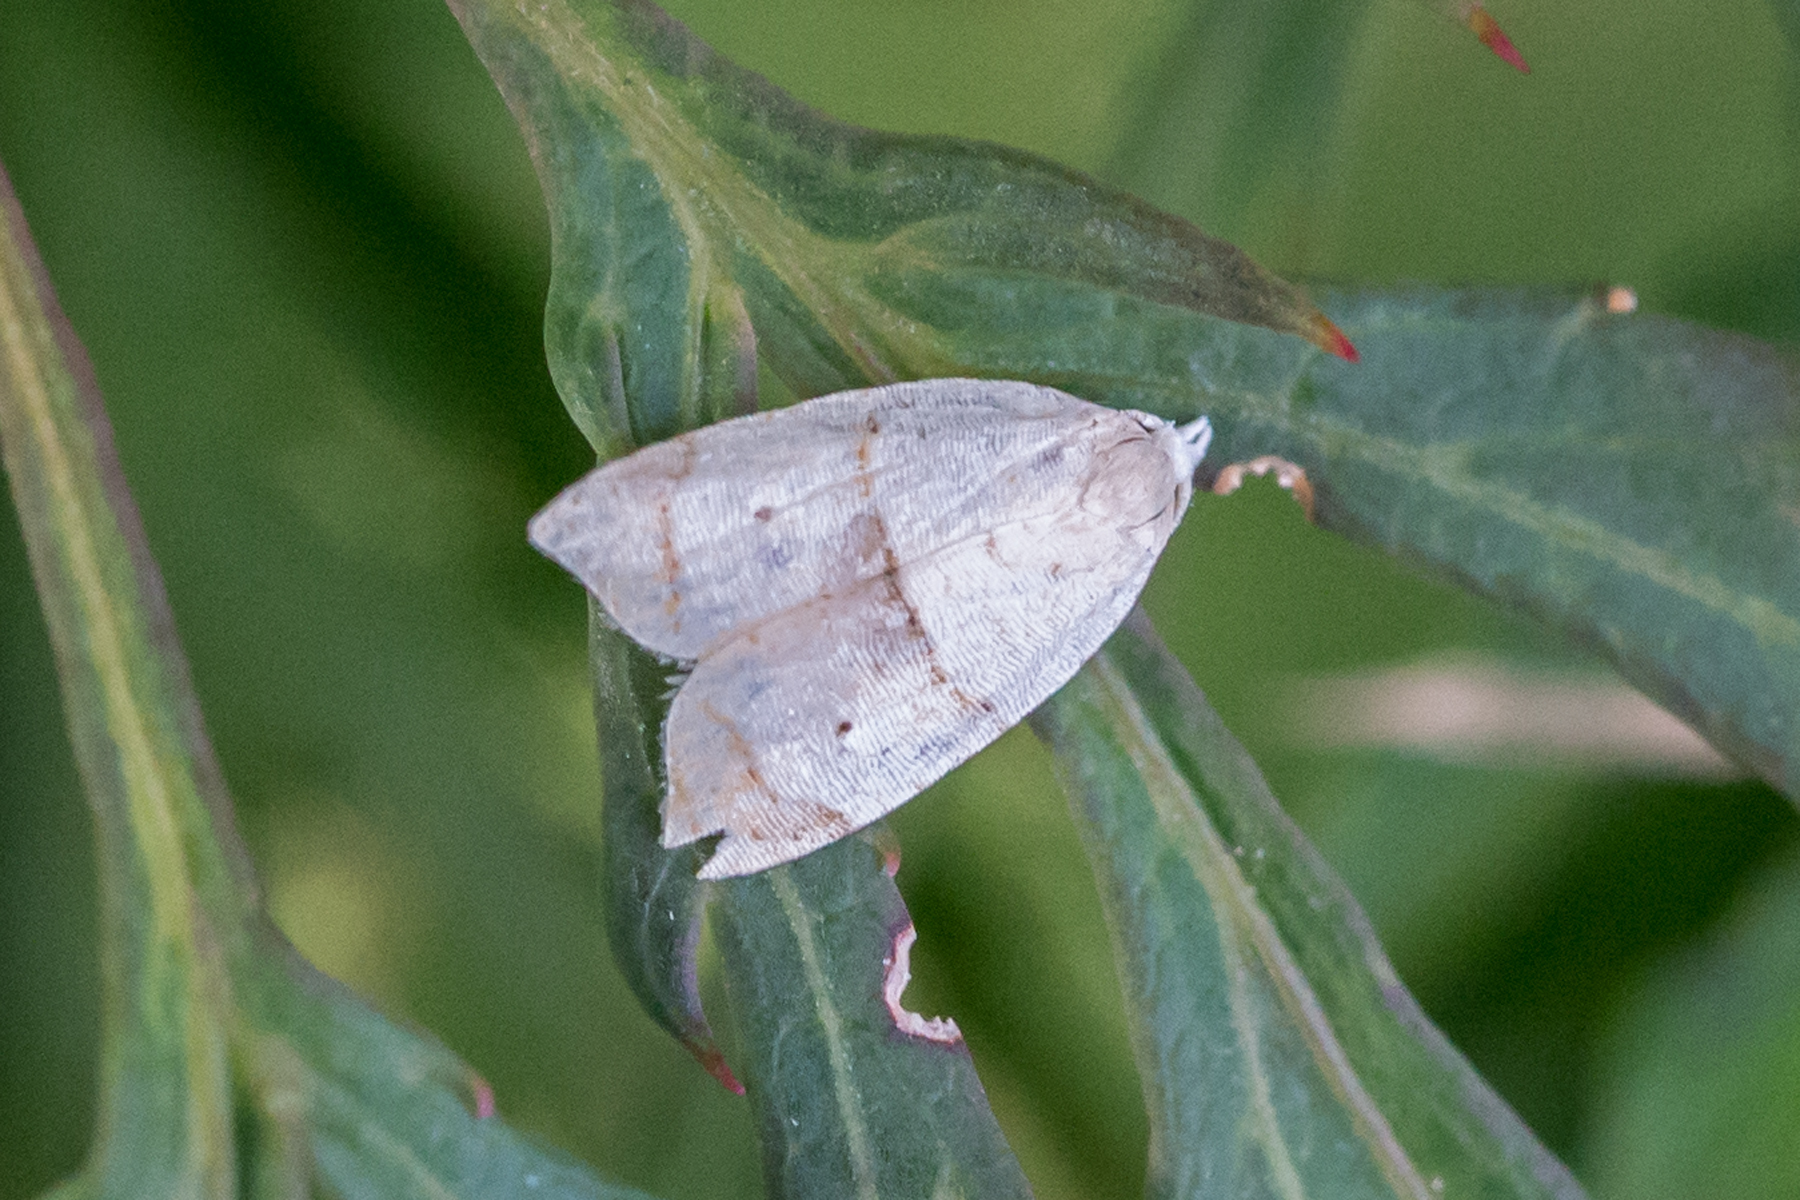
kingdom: Animalia
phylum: Arthropoda
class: Insecta
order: Lepidoptera
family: Tortricidae
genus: Coelostathma
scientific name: Coelostathma discopunctana
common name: Batman moth
